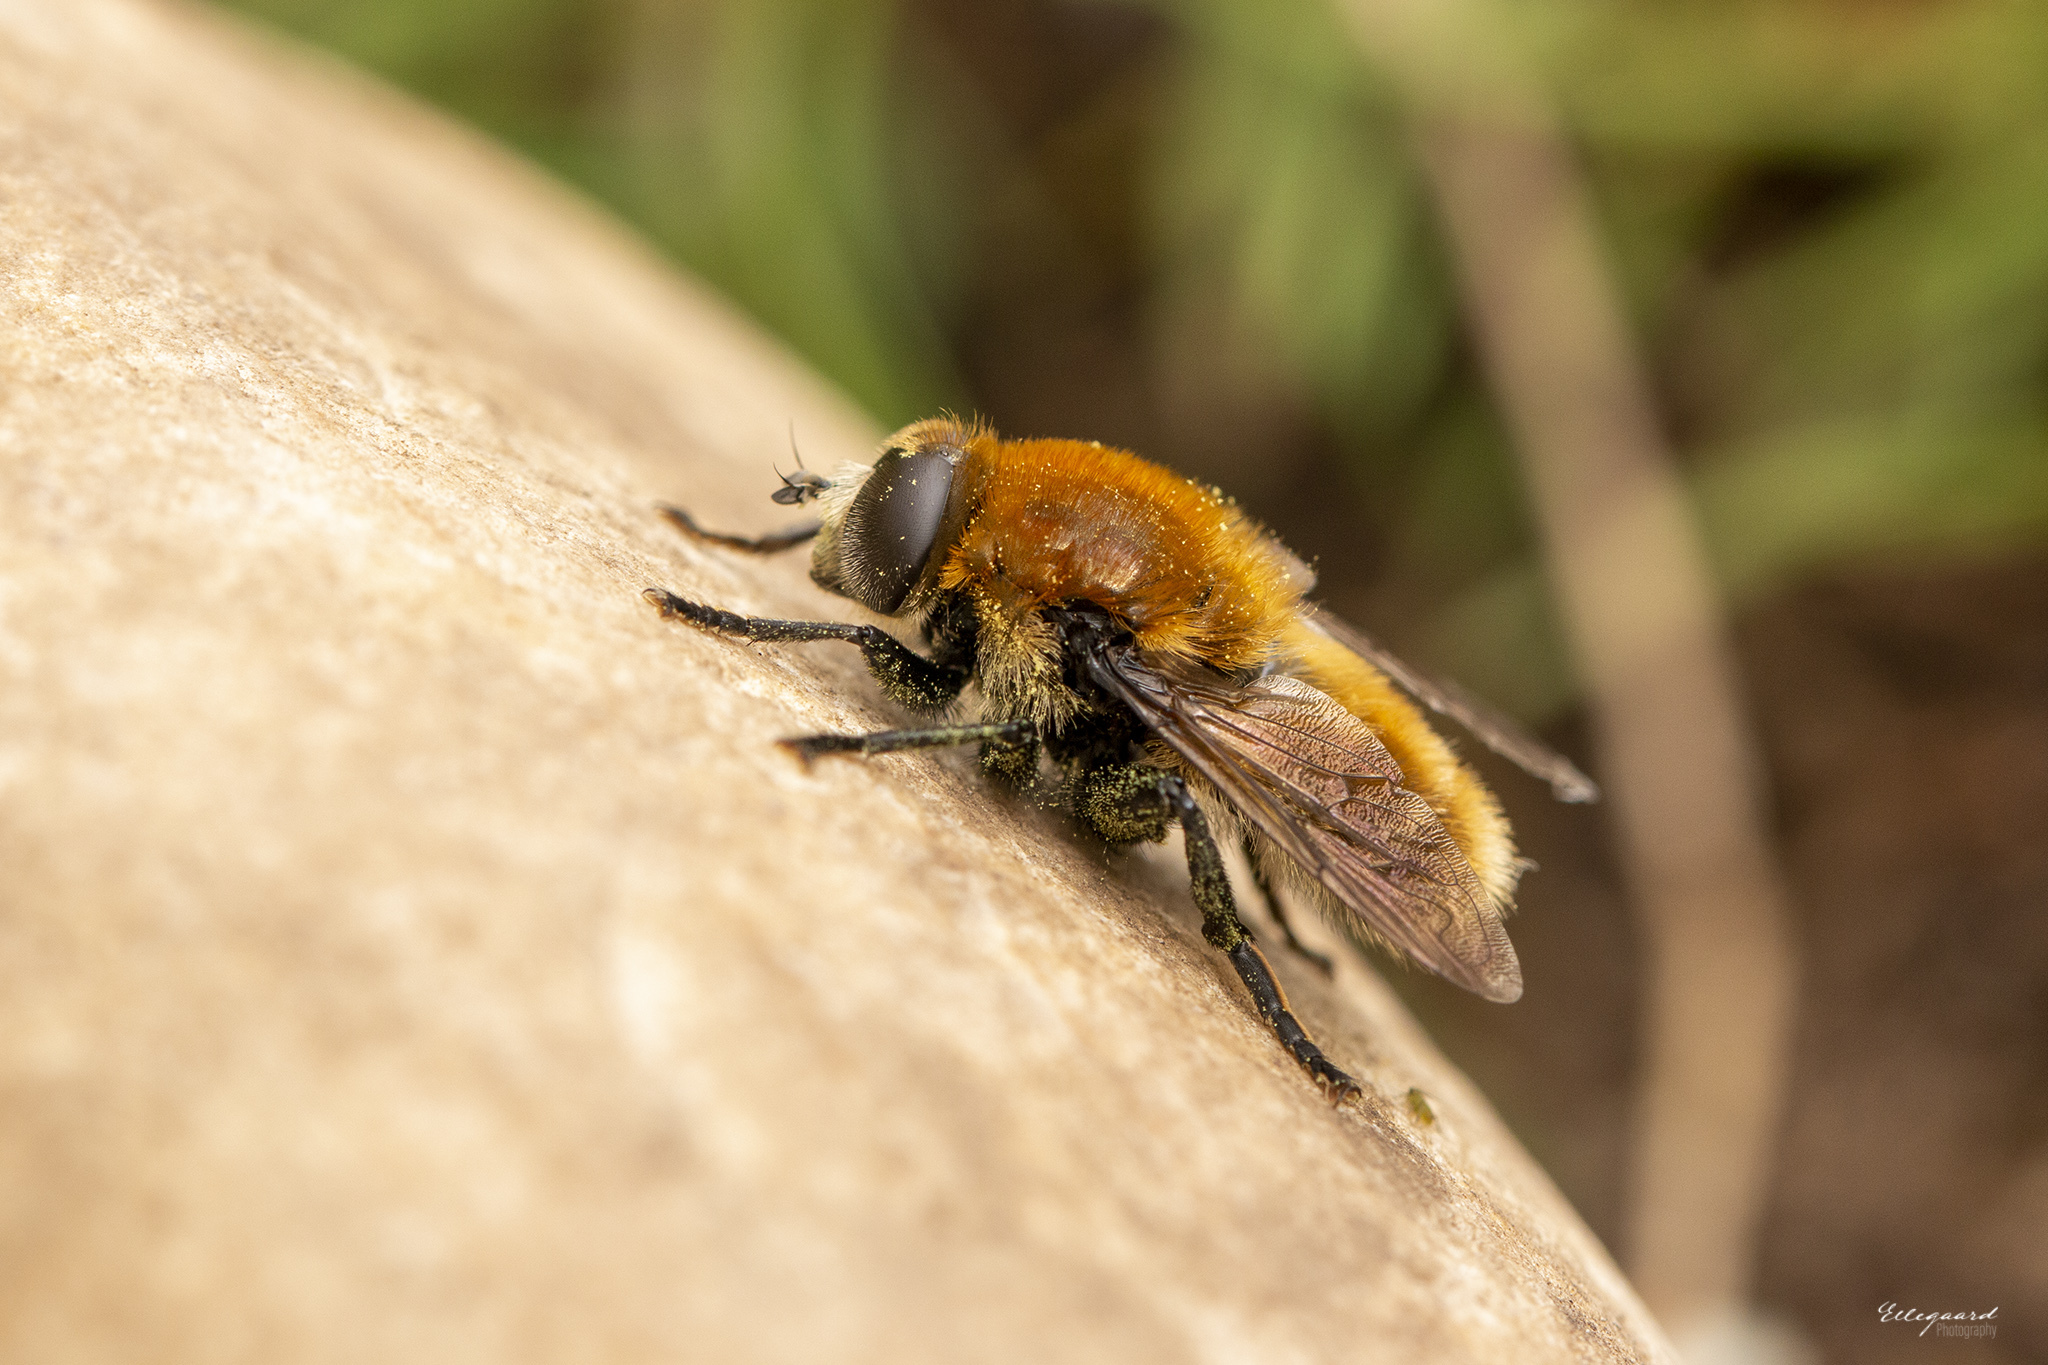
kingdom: Animalia
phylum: Arthropoda
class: Insecta
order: Diptera
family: Syrphidae
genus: Merodon
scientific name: Merodon equestris
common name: Greater bulb-fly
